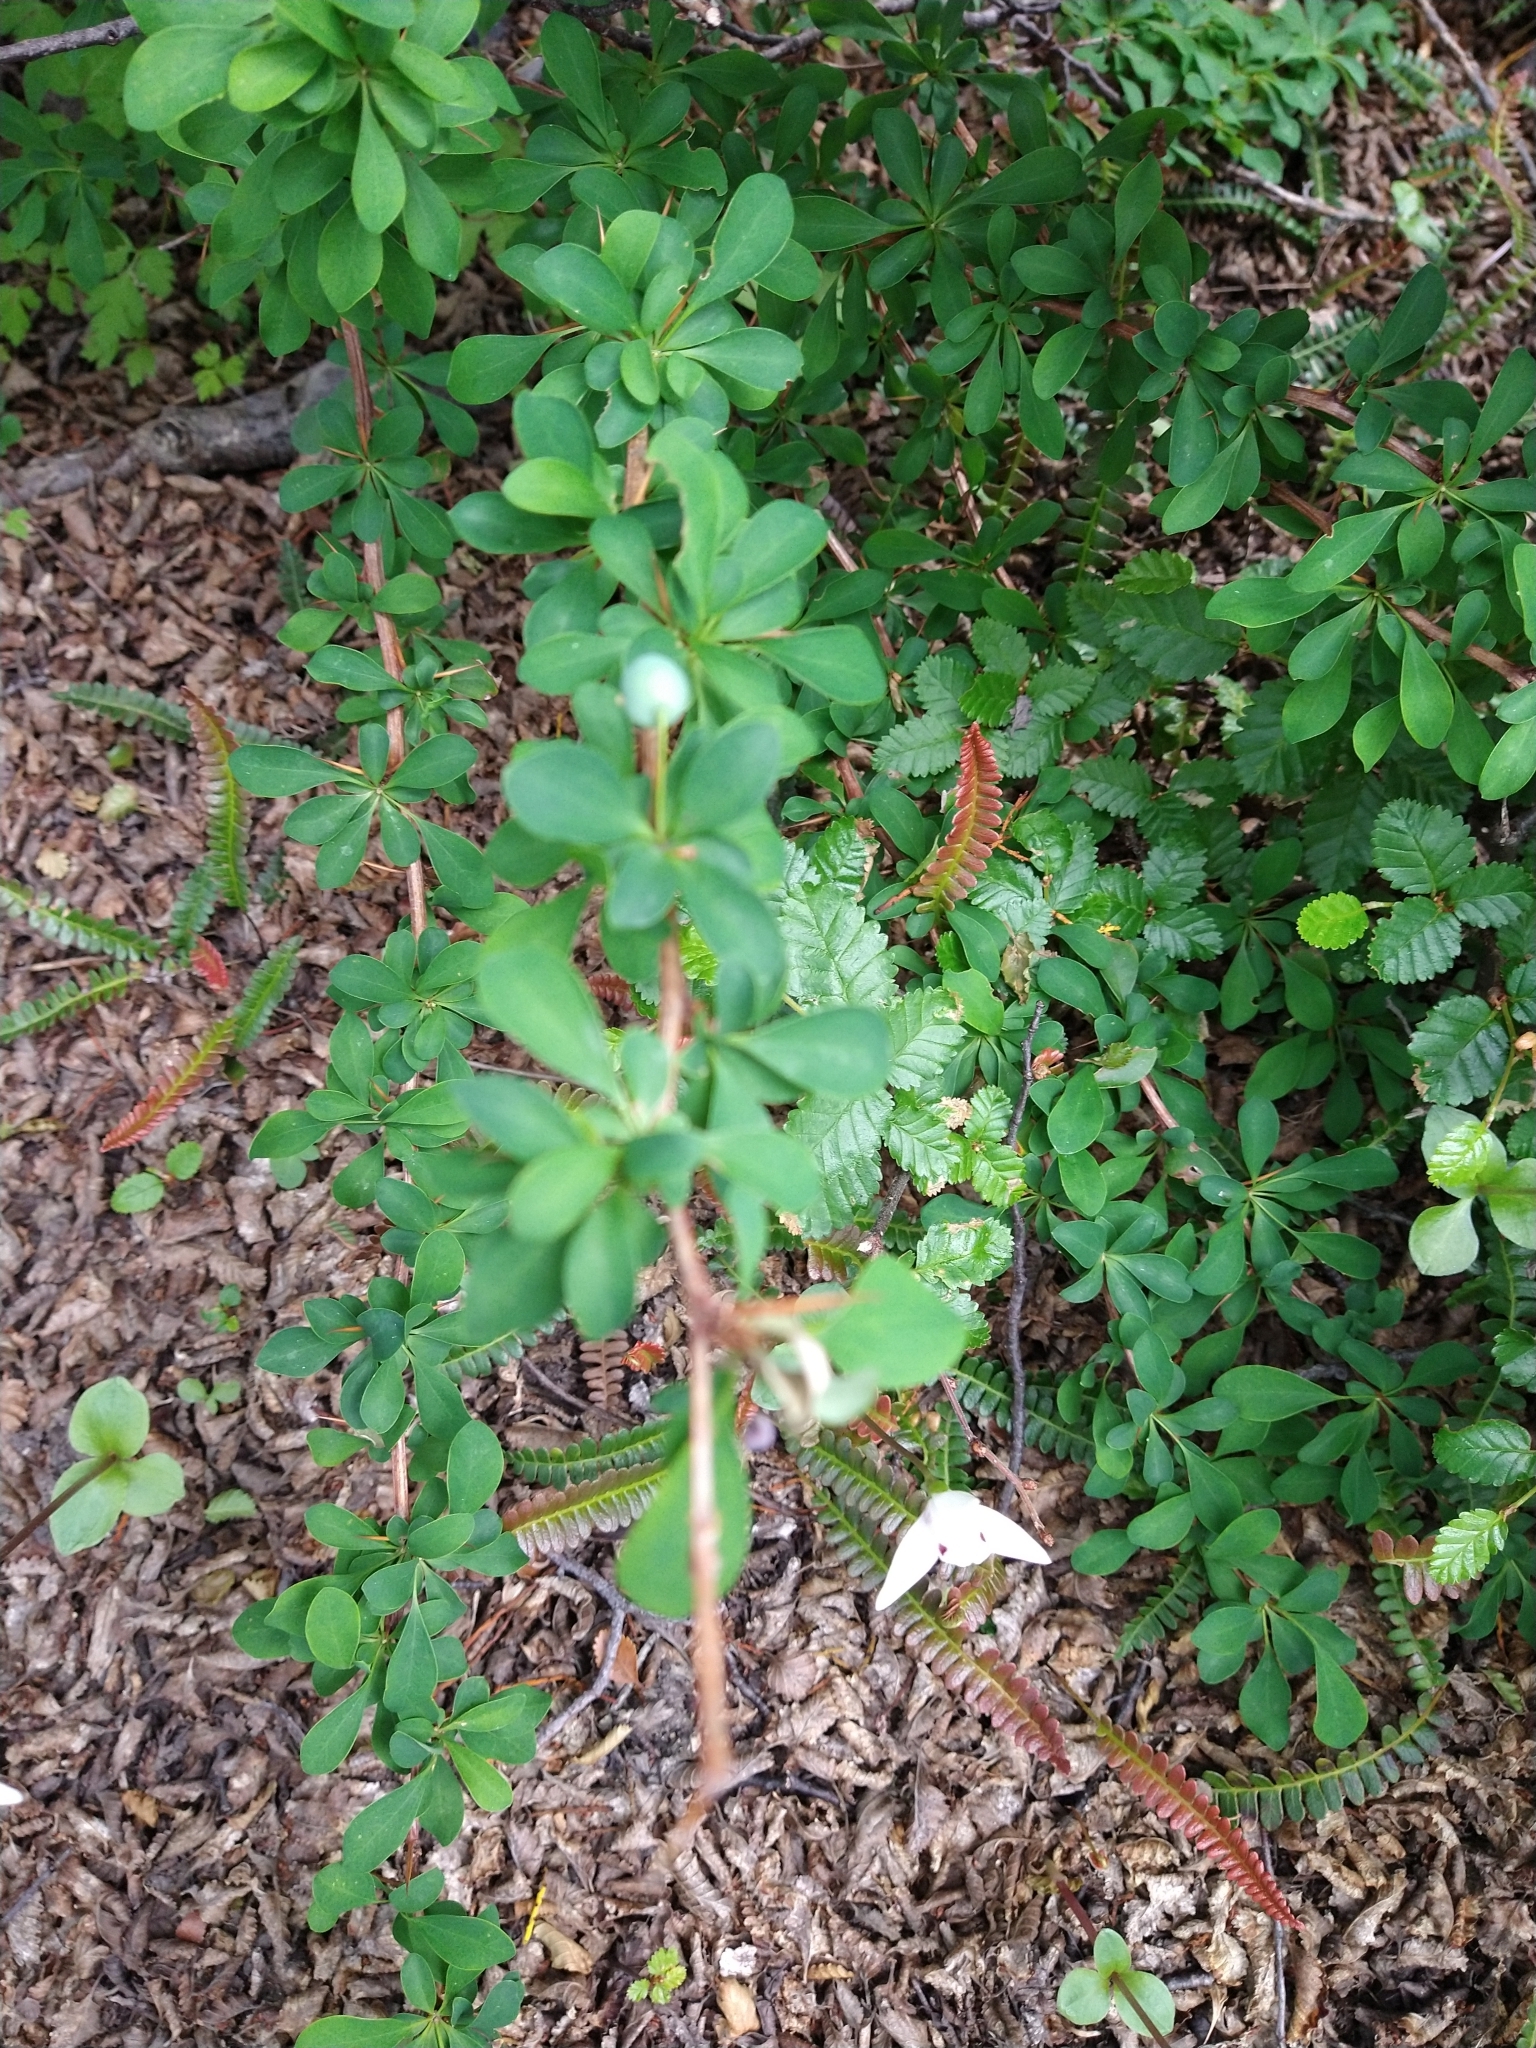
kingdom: Plantae
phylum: Tracheophyta
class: Magnoliopsida
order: Ranunculales
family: Berberidaceae
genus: Berberis
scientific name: Berberis microphylla
